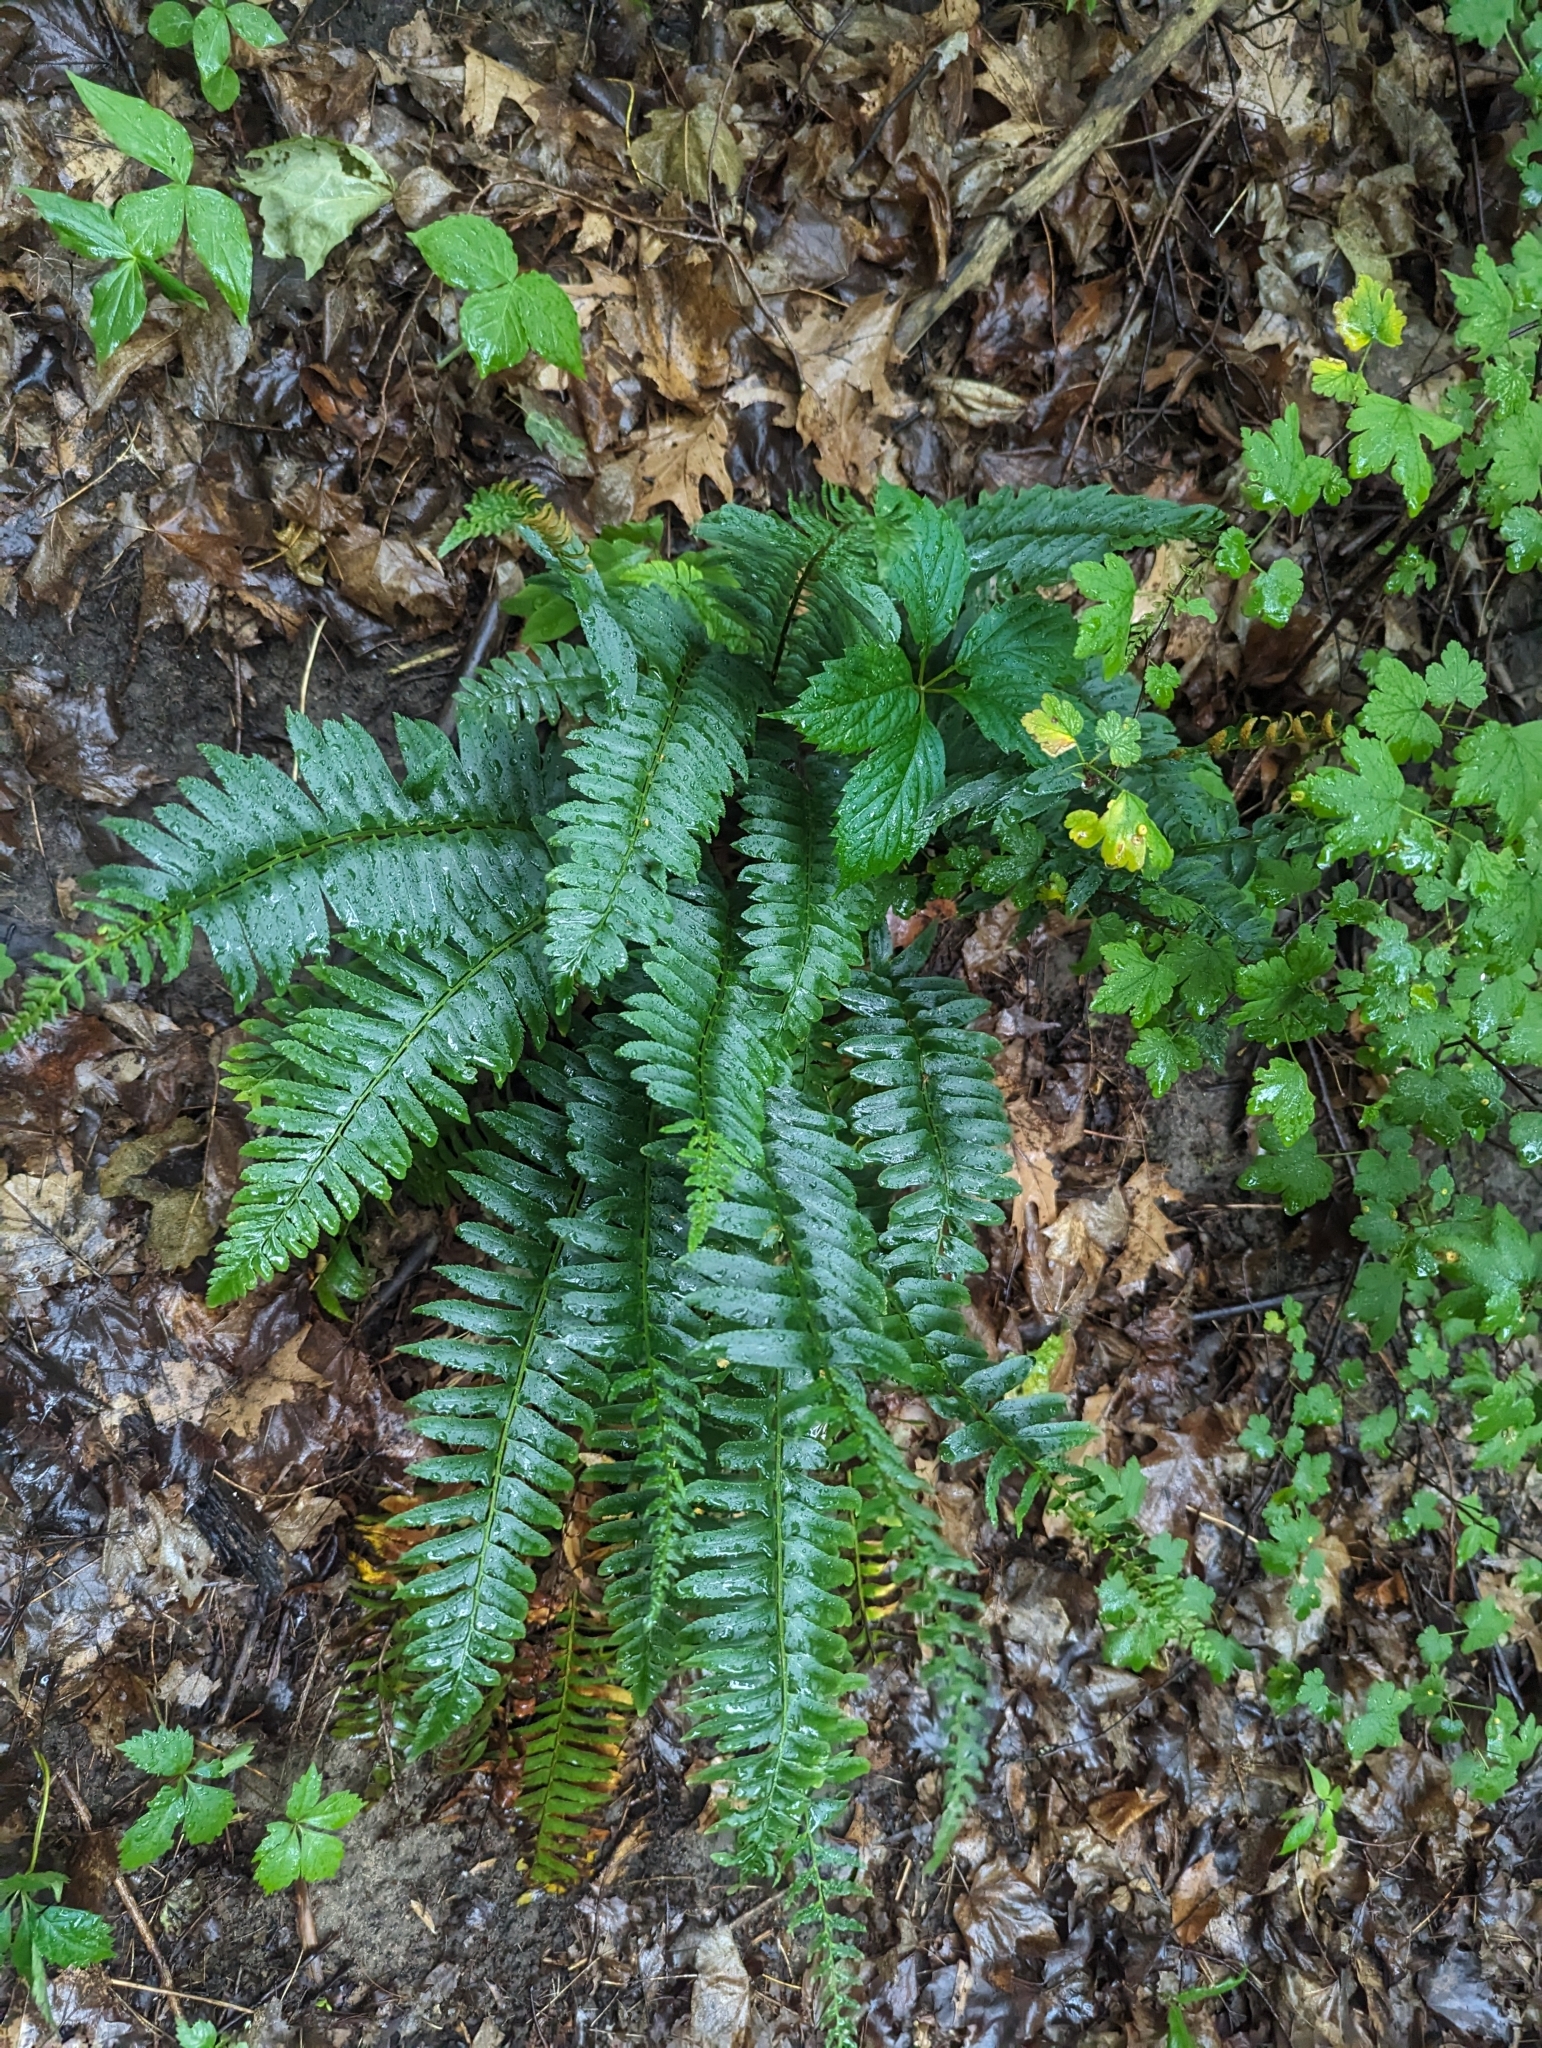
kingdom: Plantae
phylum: Tracheophyta
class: Polypodiopsida
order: Polypodiales
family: Dryopteridaceae
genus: Polystichum
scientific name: Polystichum acrostichoides
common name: Christmas fern
